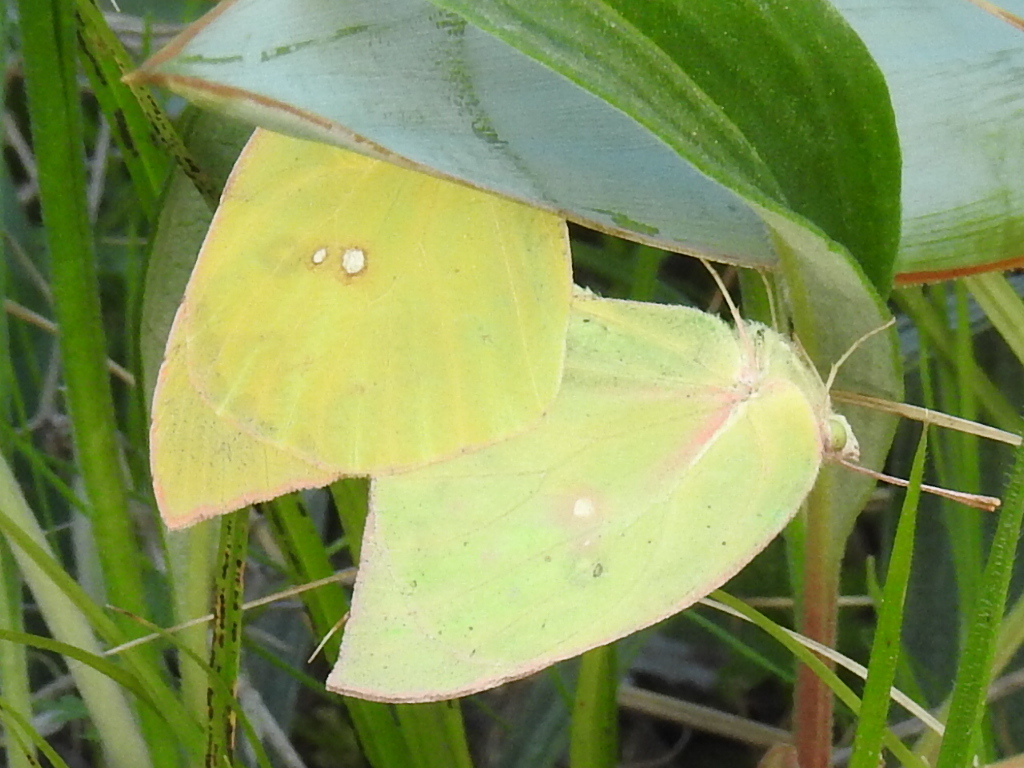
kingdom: Animalia
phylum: Arthropoda
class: Insecta
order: Lepidoptera
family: Pieridae
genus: Zerene
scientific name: Zerene cesonia
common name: Southern dogface
